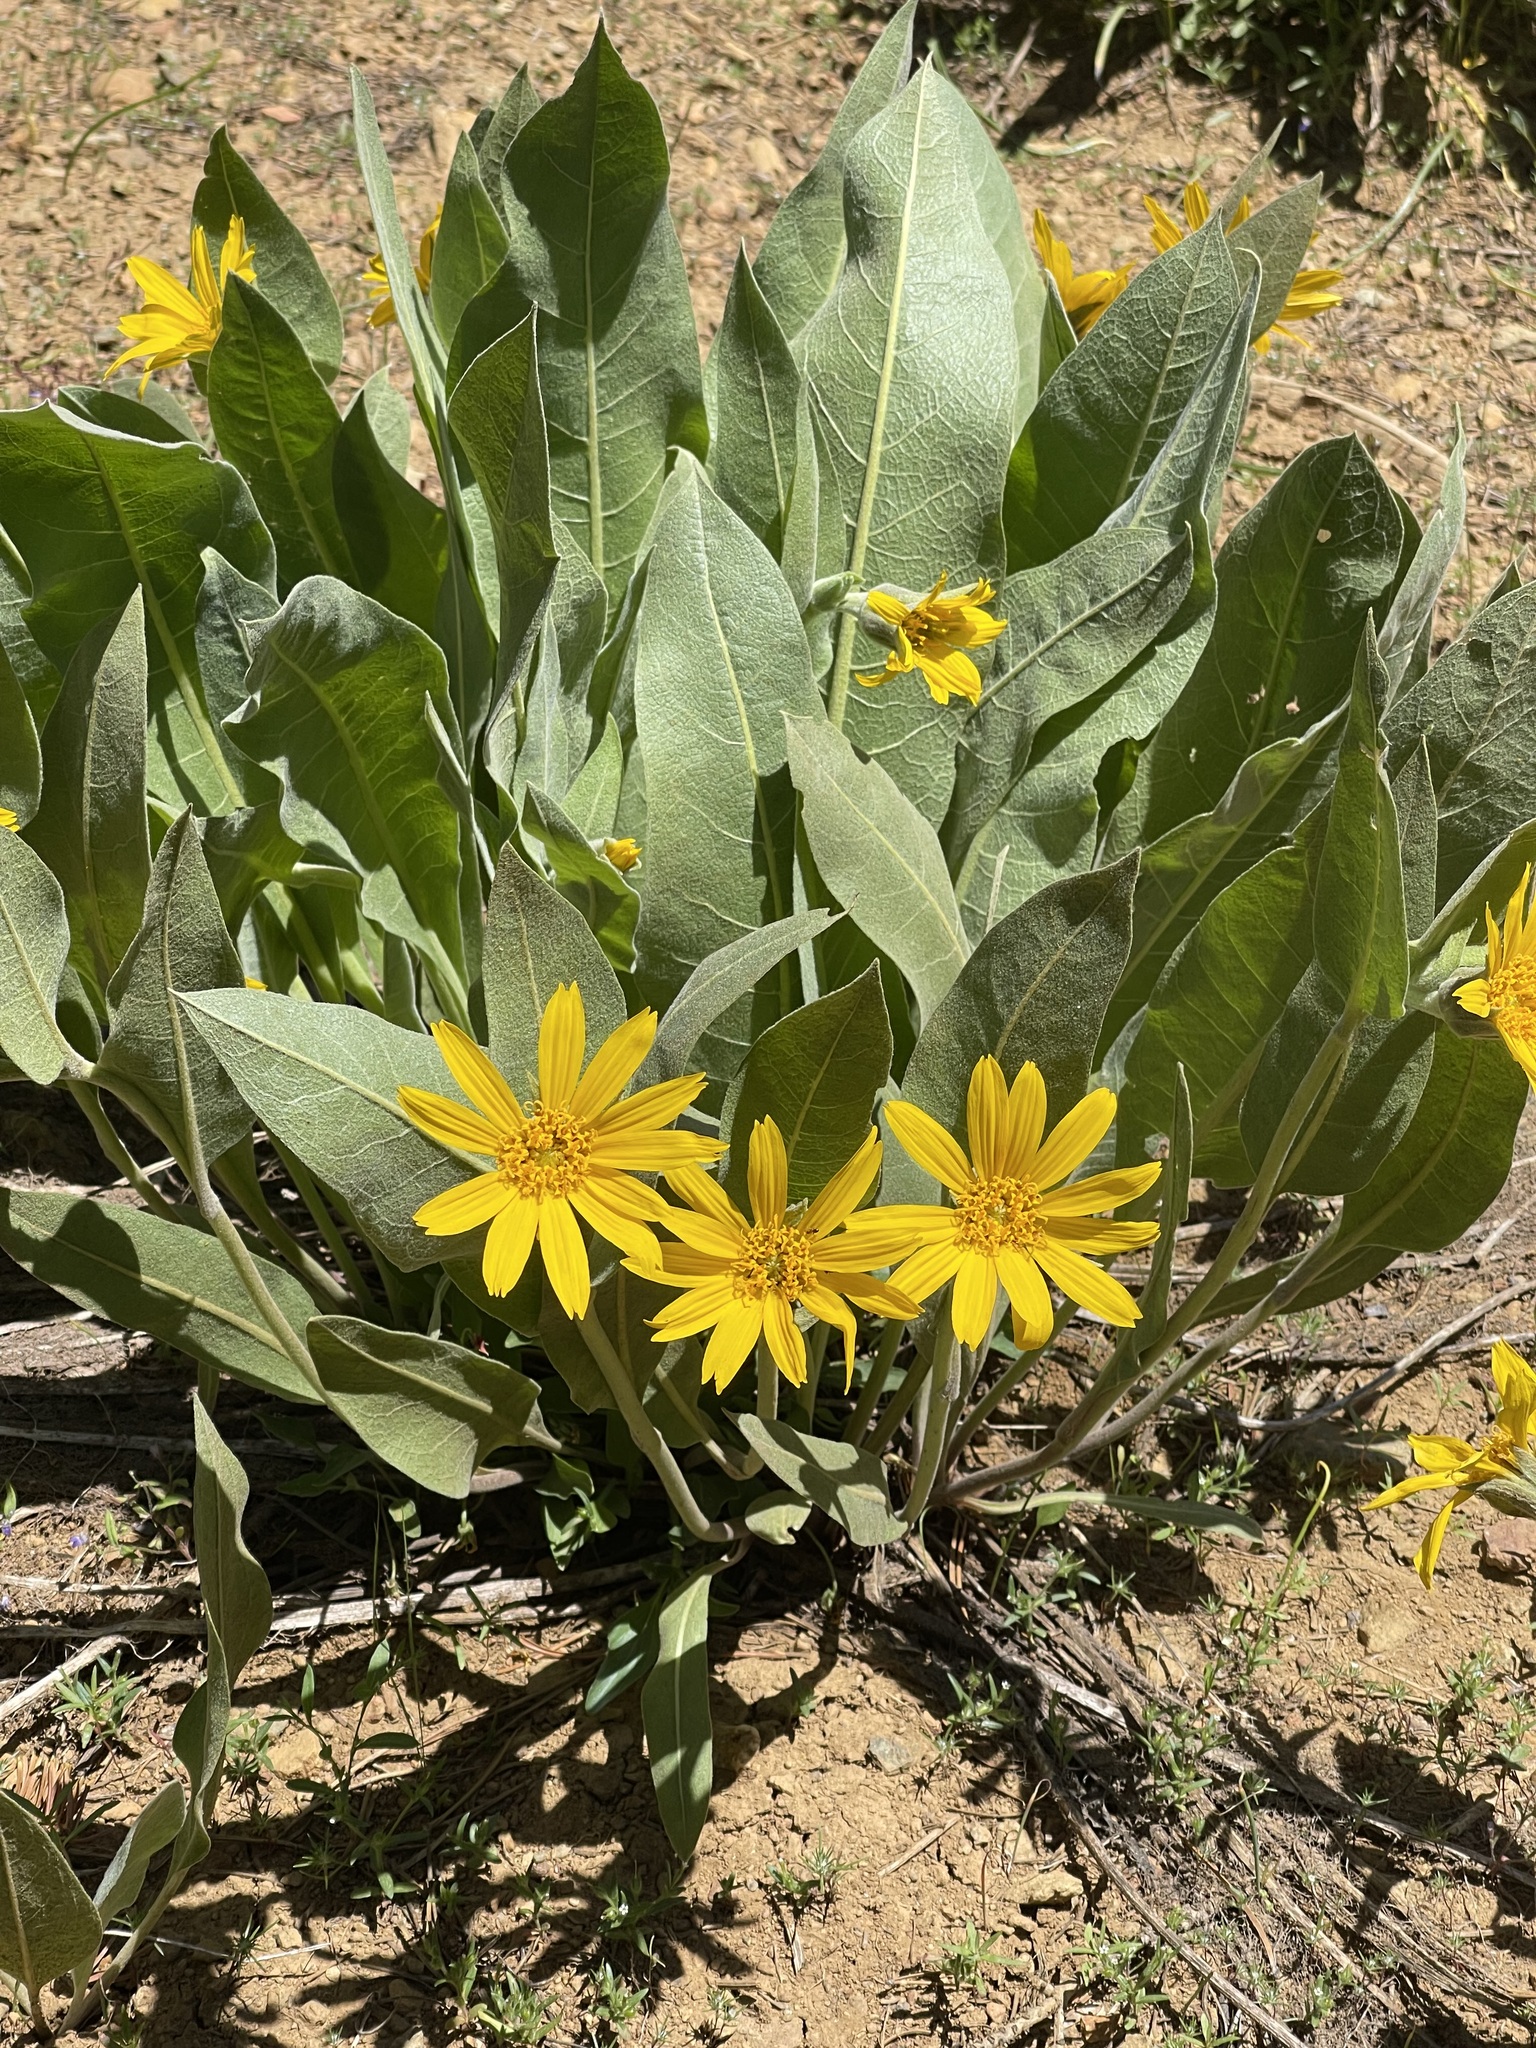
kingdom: Plantae
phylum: Tracheophyta
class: Magnoliopsida
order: Asterales
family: Asteraceae
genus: Wyethia
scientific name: Wyethia mollis
